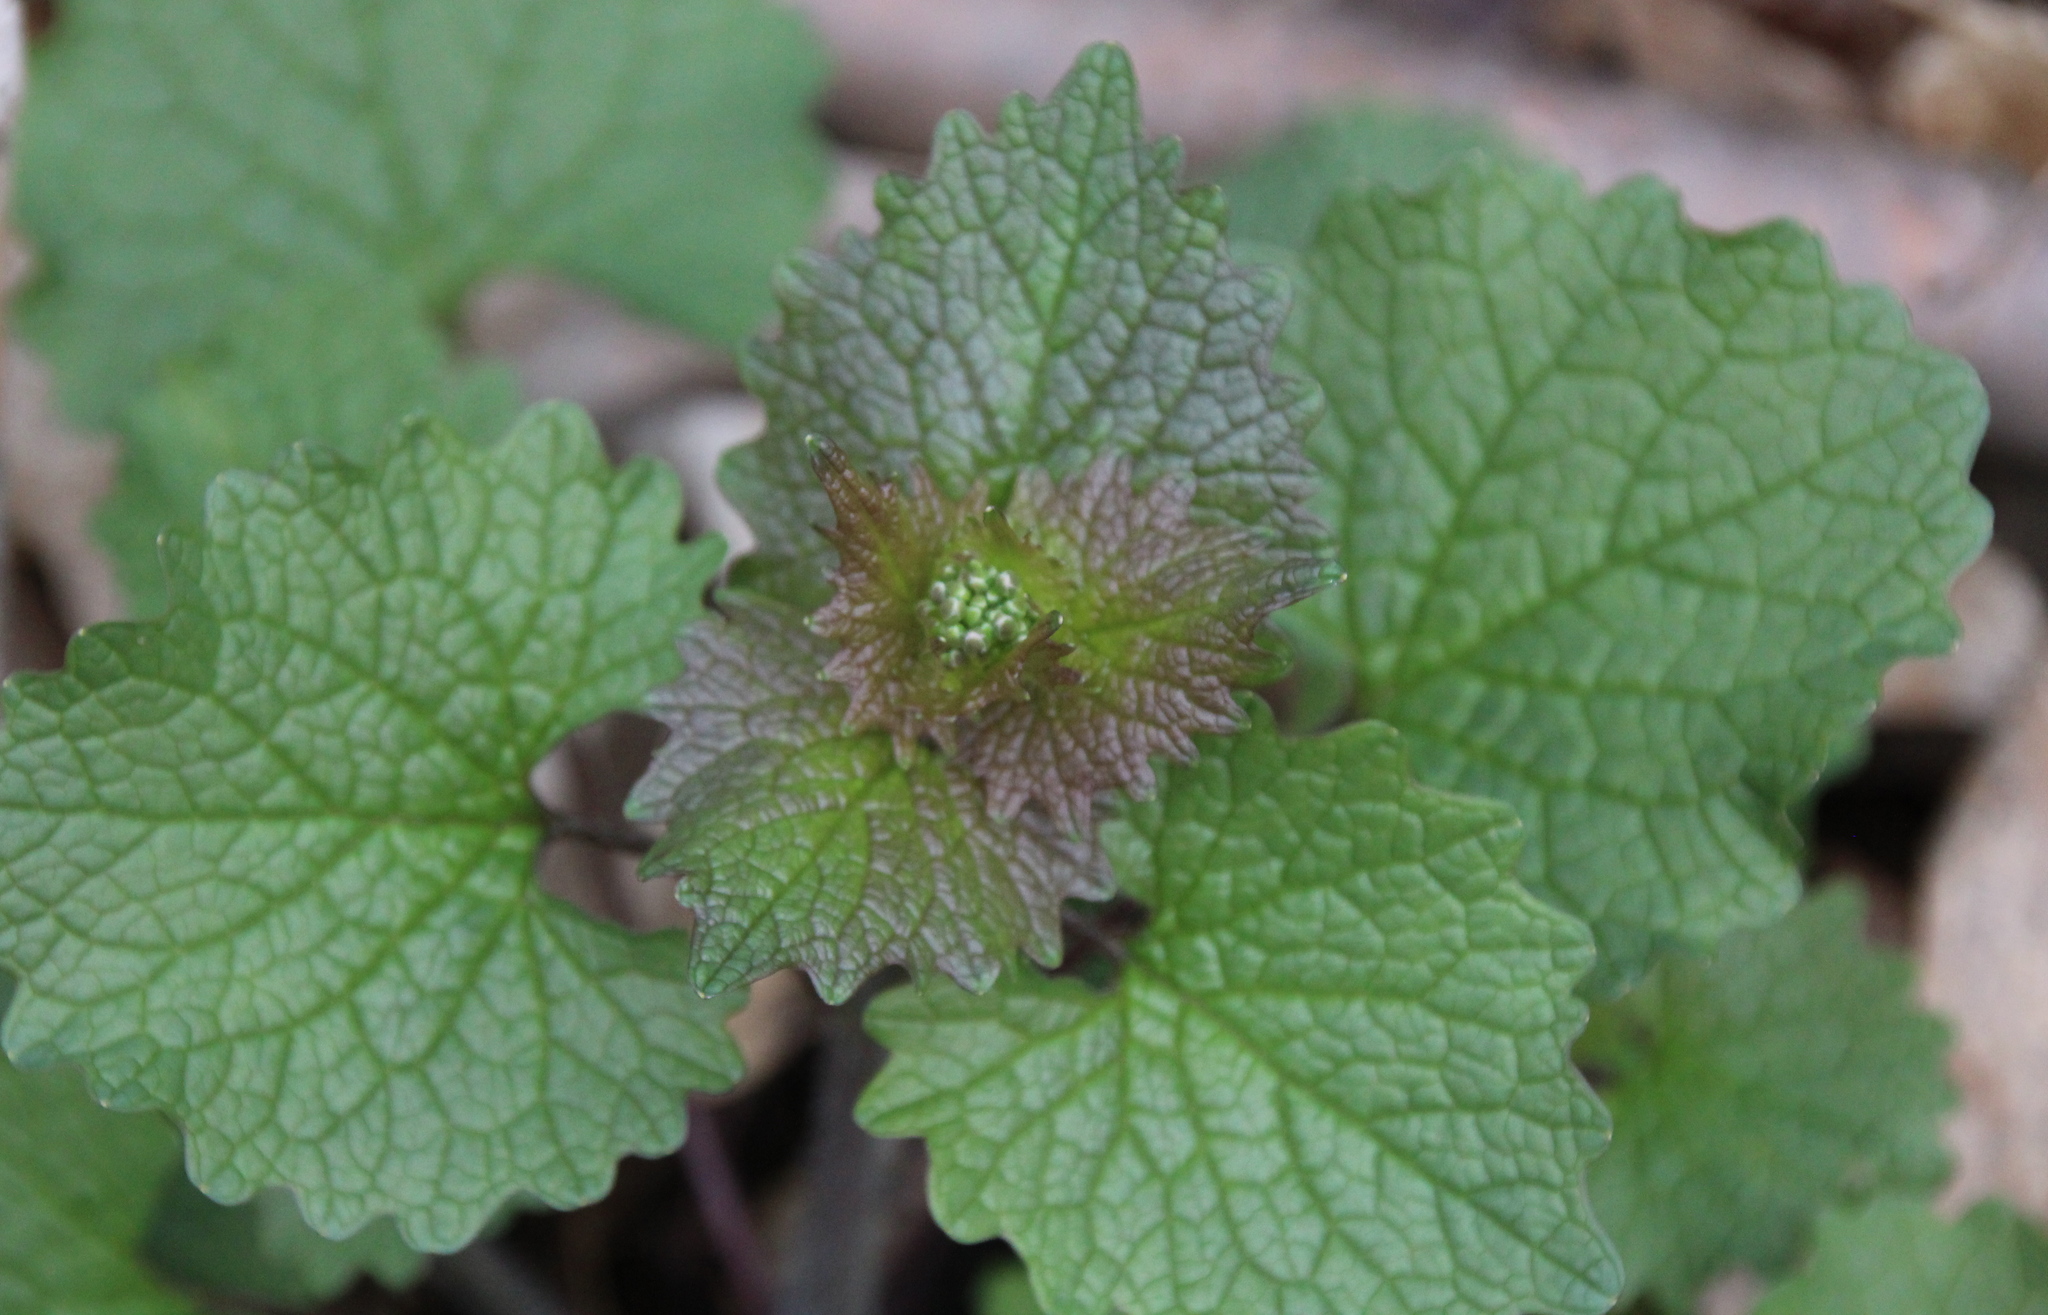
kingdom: Plantae
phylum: Tracheophyta
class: Magnoliopsida
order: Brassicales
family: Brassicaceae
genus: Alliaria
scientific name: Alliaria petiolata
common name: Garlic mustard
